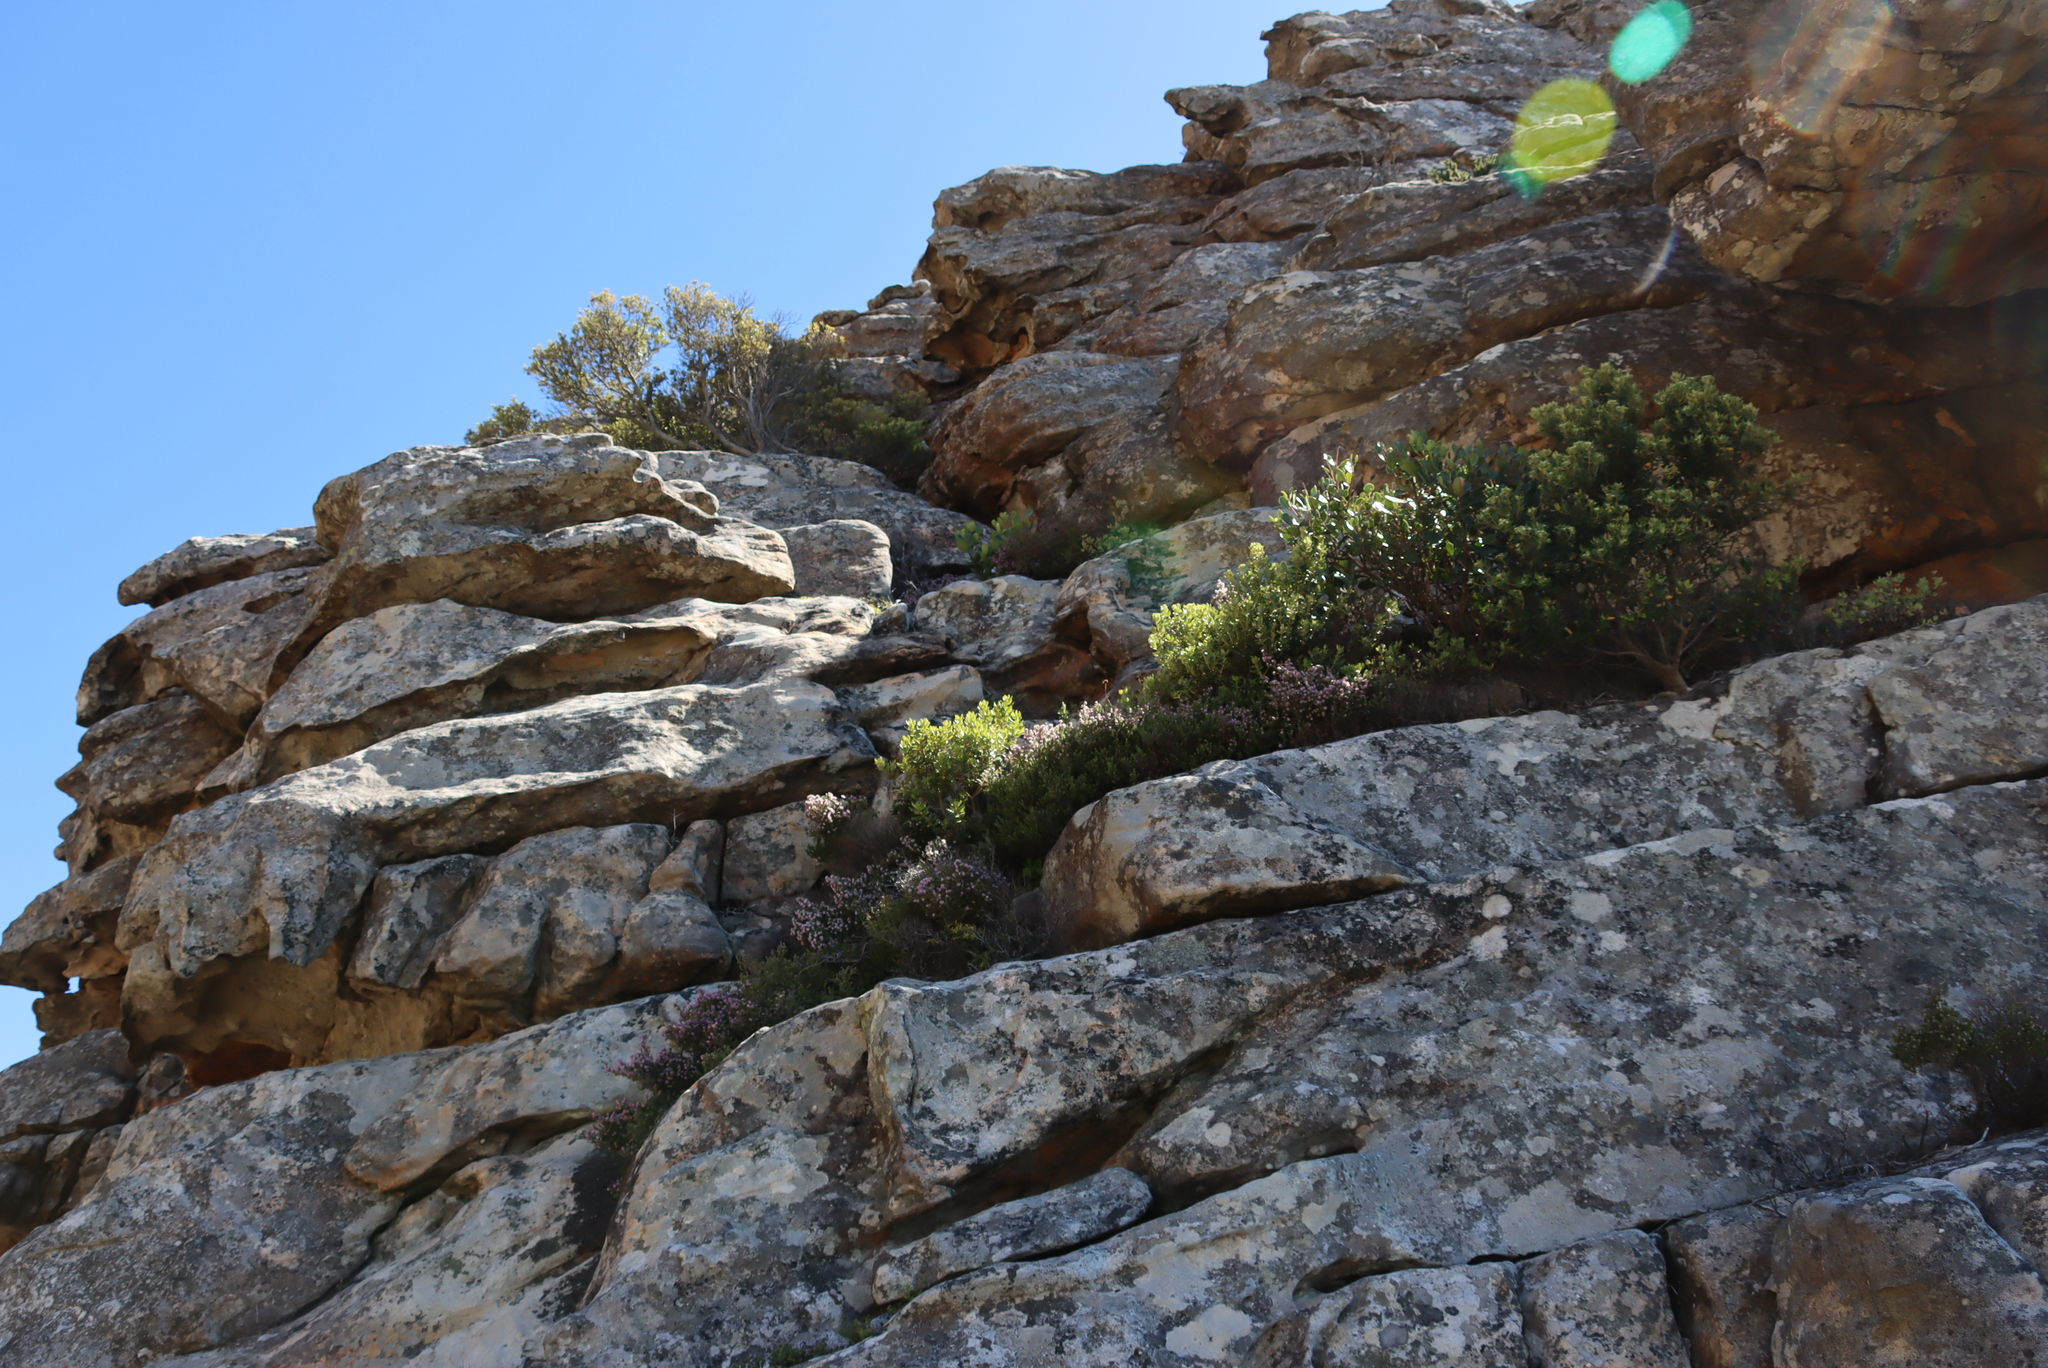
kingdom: Plantae
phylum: Tracheophyta
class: Magnoliopsida
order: Ericales
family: Ericaceae
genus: Erica
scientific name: Erica ericoides
